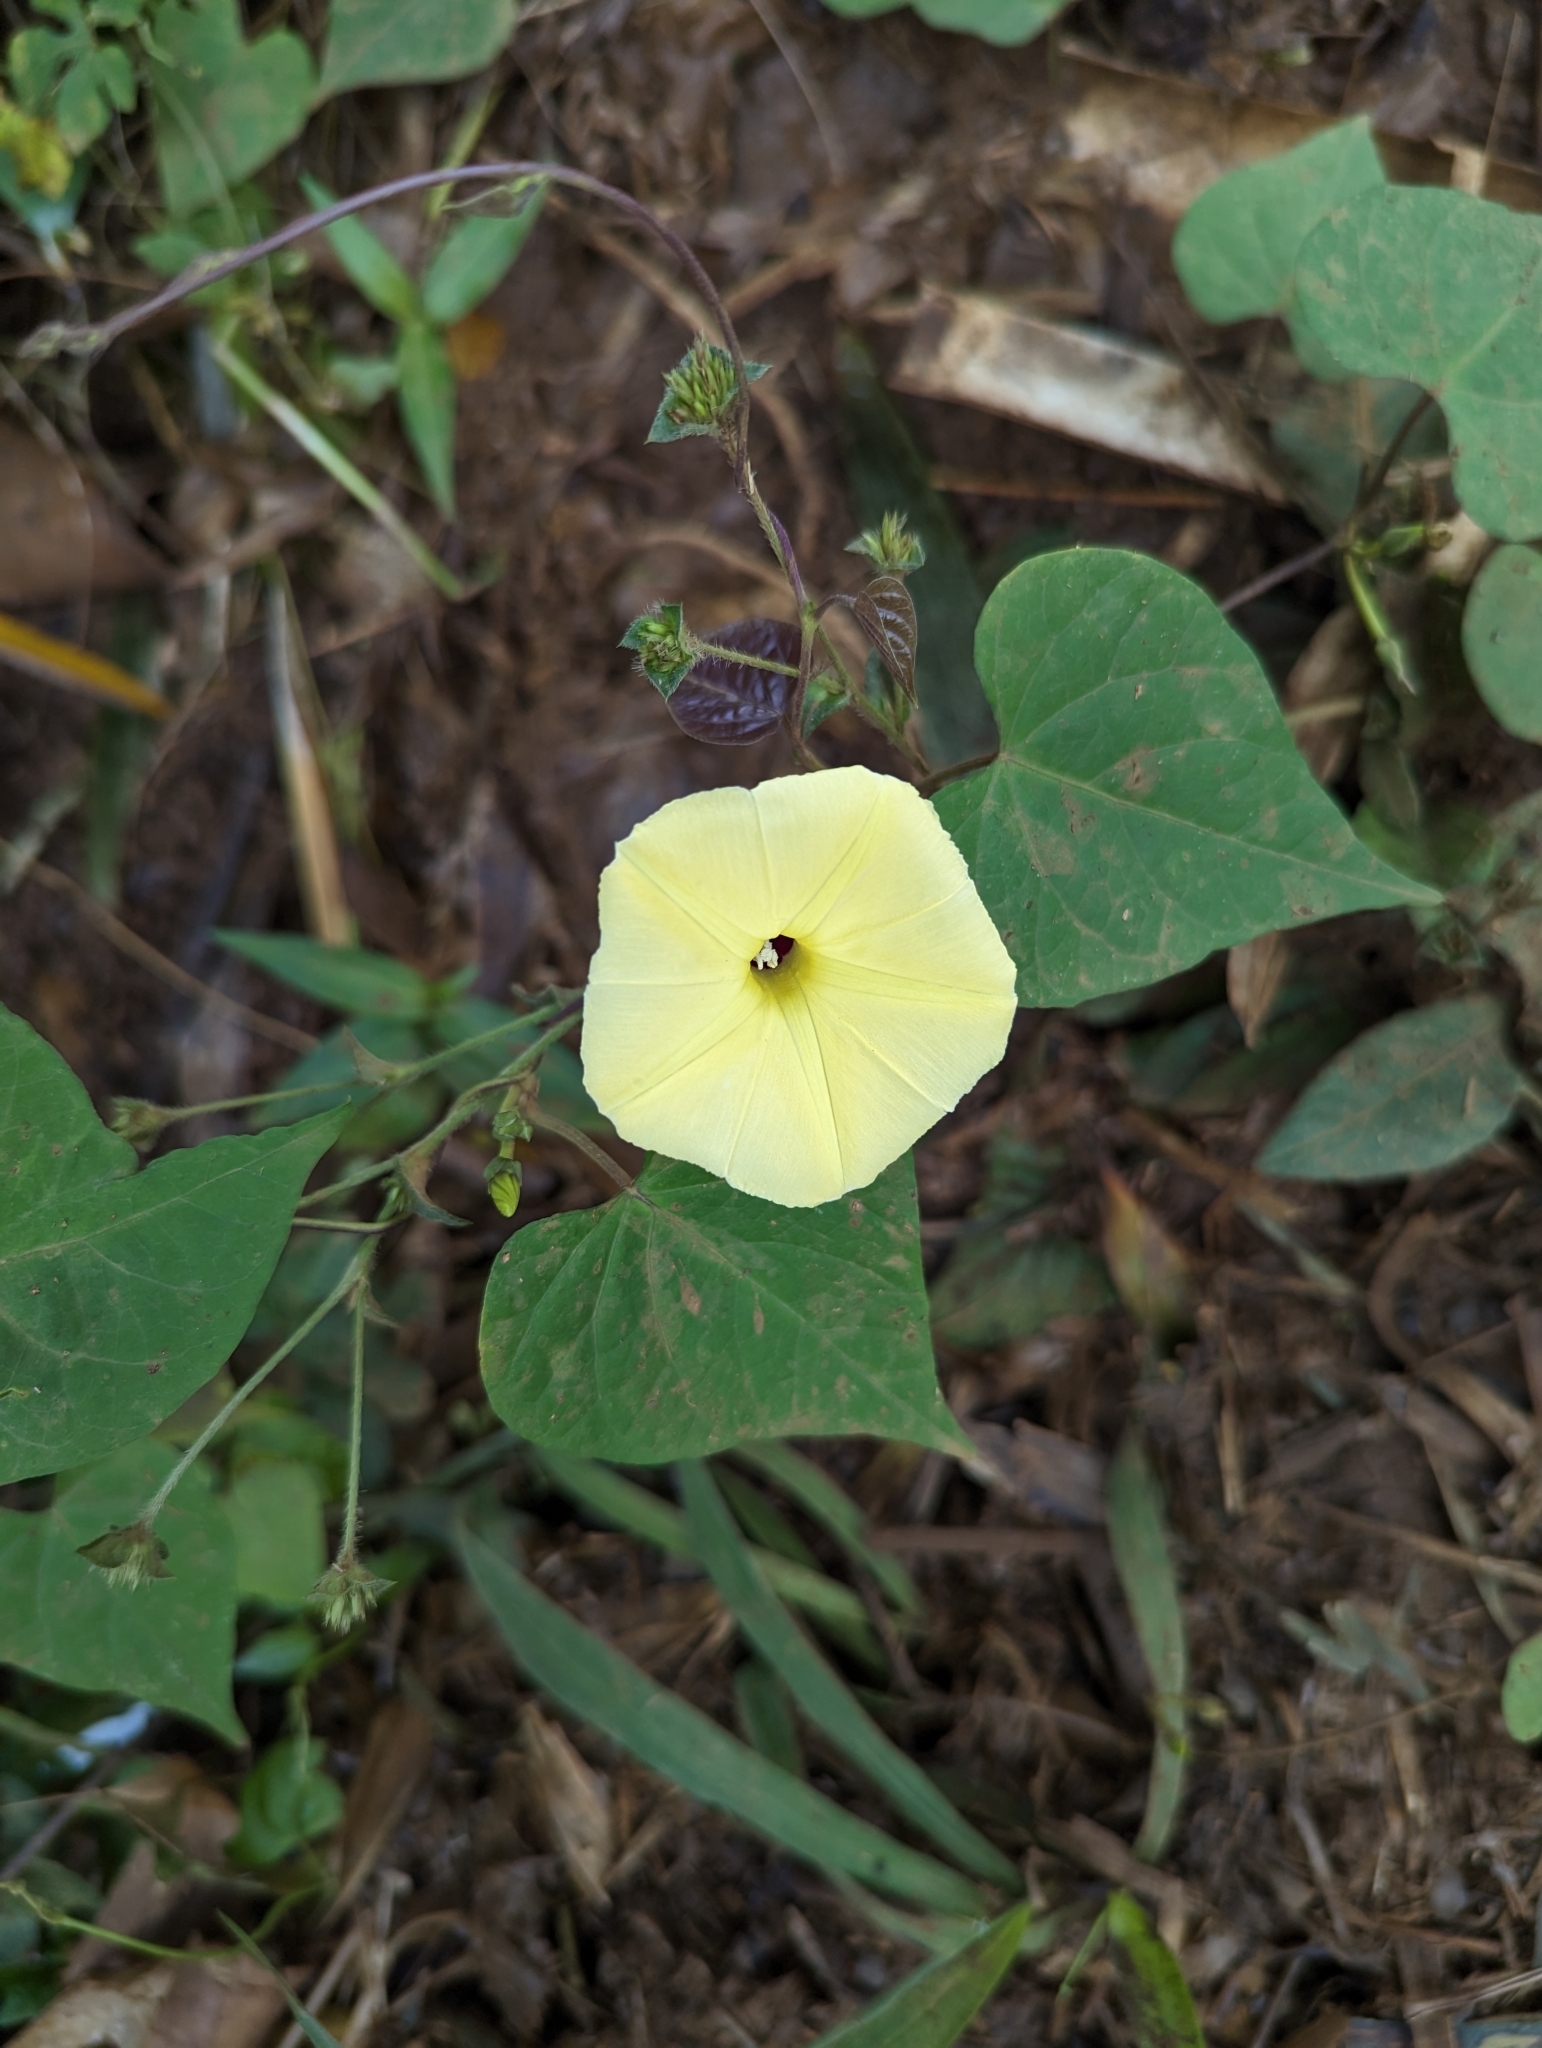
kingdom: Plantae
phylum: Tracheophyta
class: Magnoliopsida
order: Solanales
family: Convolvulaceae
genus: Ipomoea
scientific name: Ipomoea obscura
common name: Obscure morning-glory
